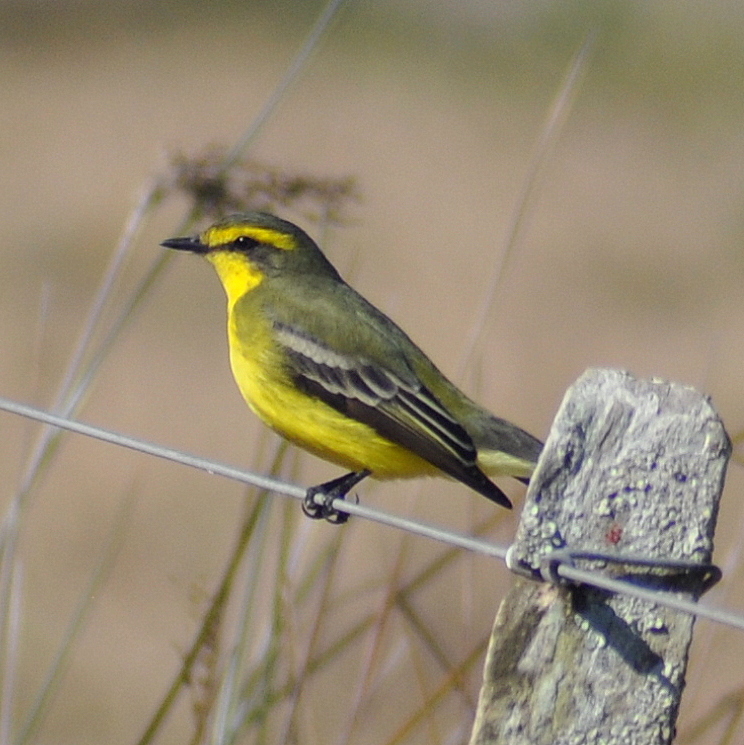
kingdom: Animalia
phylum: Chordata
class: Aves
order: Passeriformes
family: Tyrannidae
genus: Satrapa
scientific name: Satrapa icterophrys
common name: Yellow-browed tyrant
